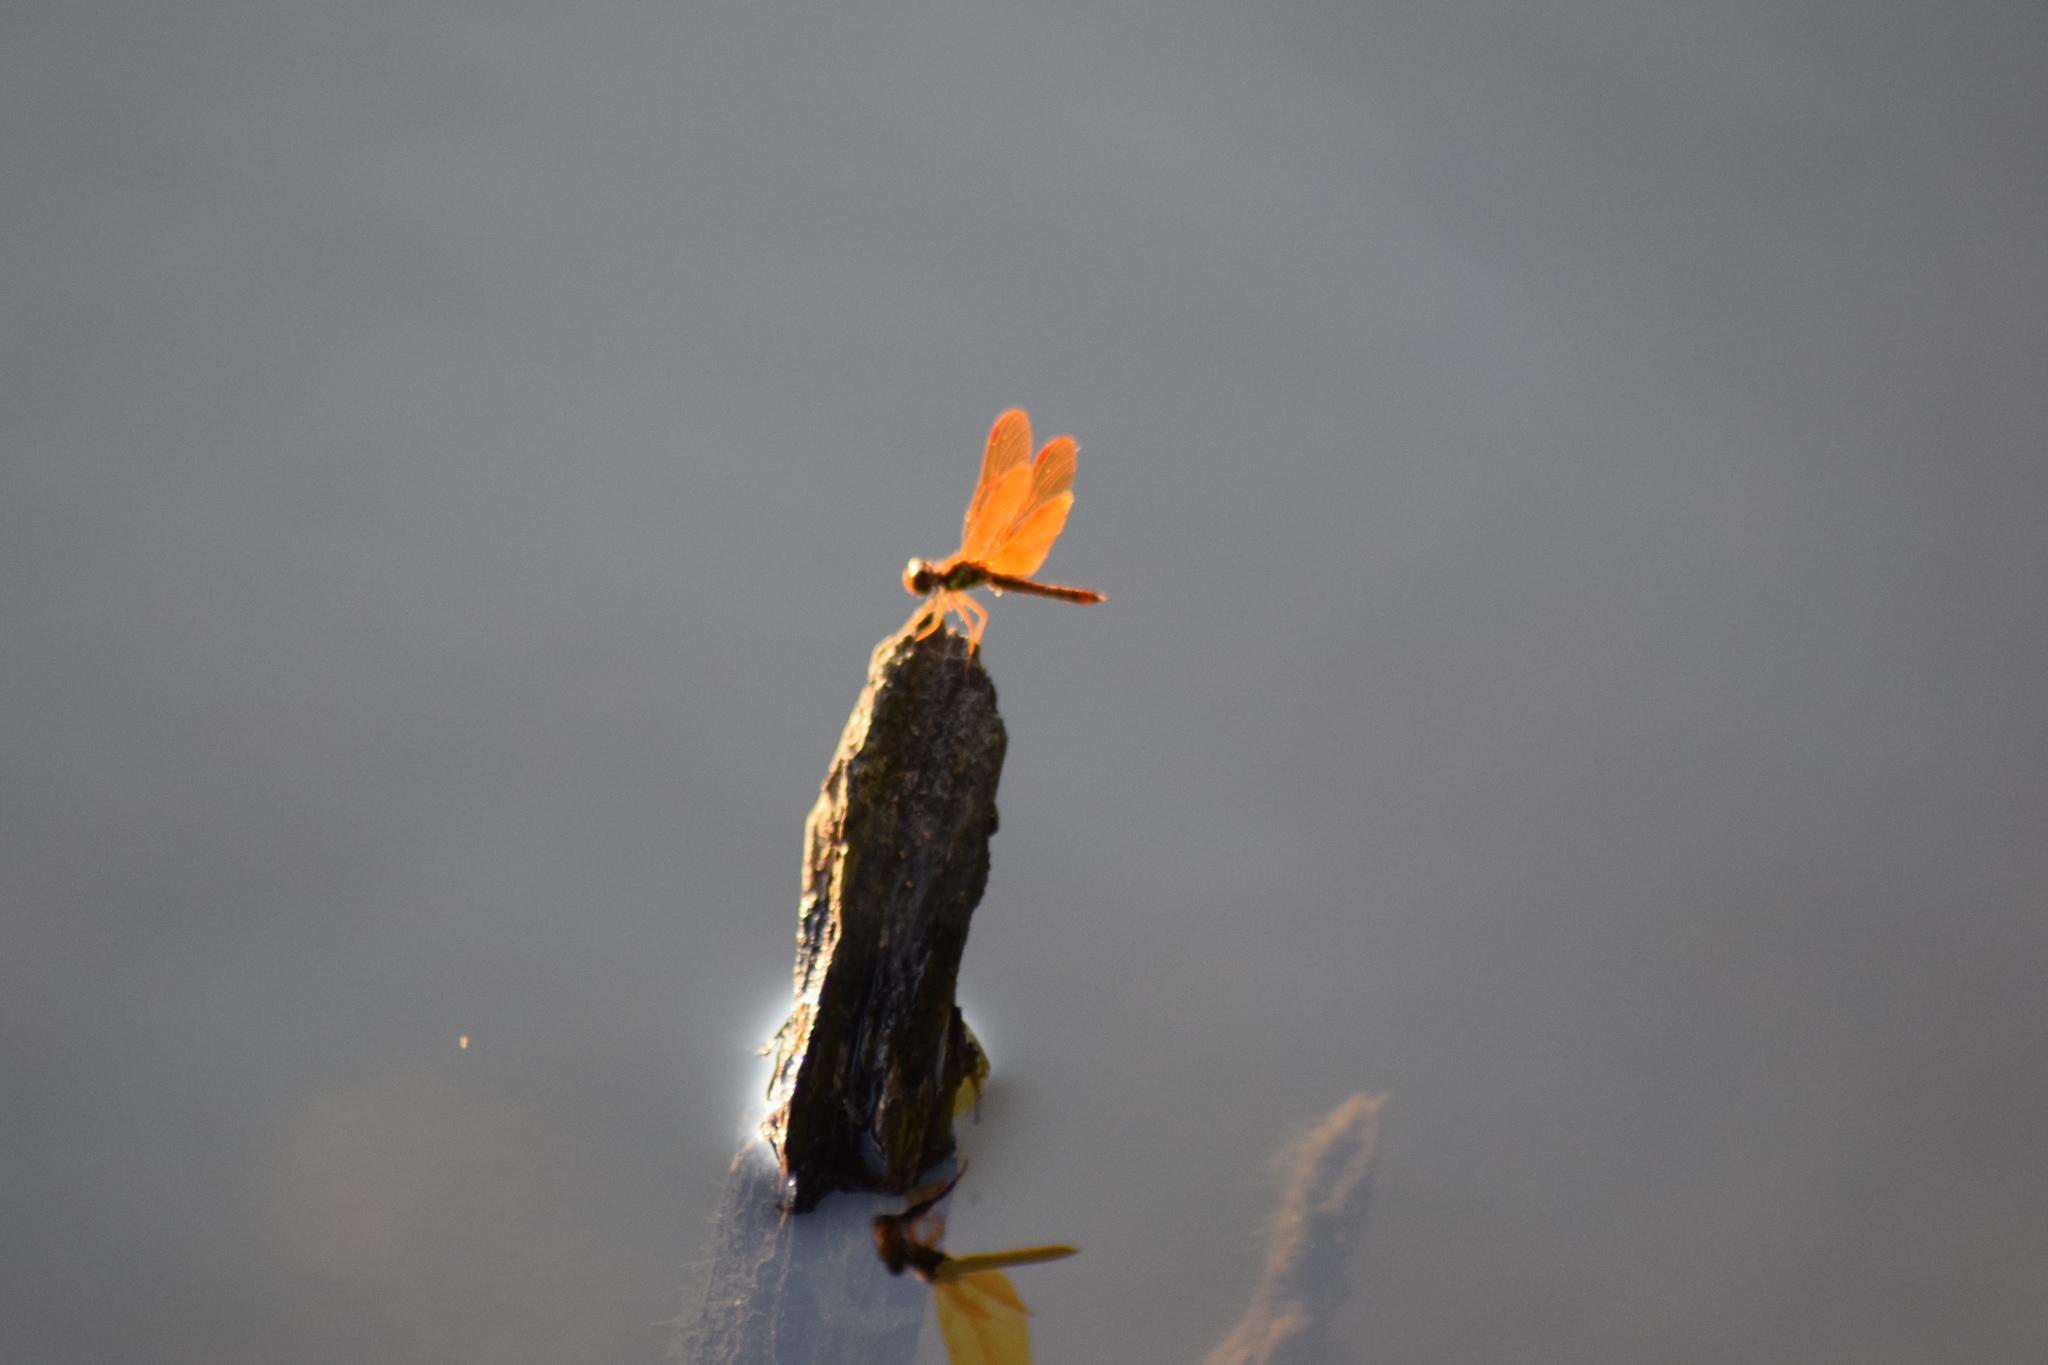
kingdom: Animalia
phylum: Arthropoda
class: Insecta
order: Odonata
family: Libellulidae
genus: Perithemis
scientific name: Perithemis tenera
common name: Eastern amberwing
